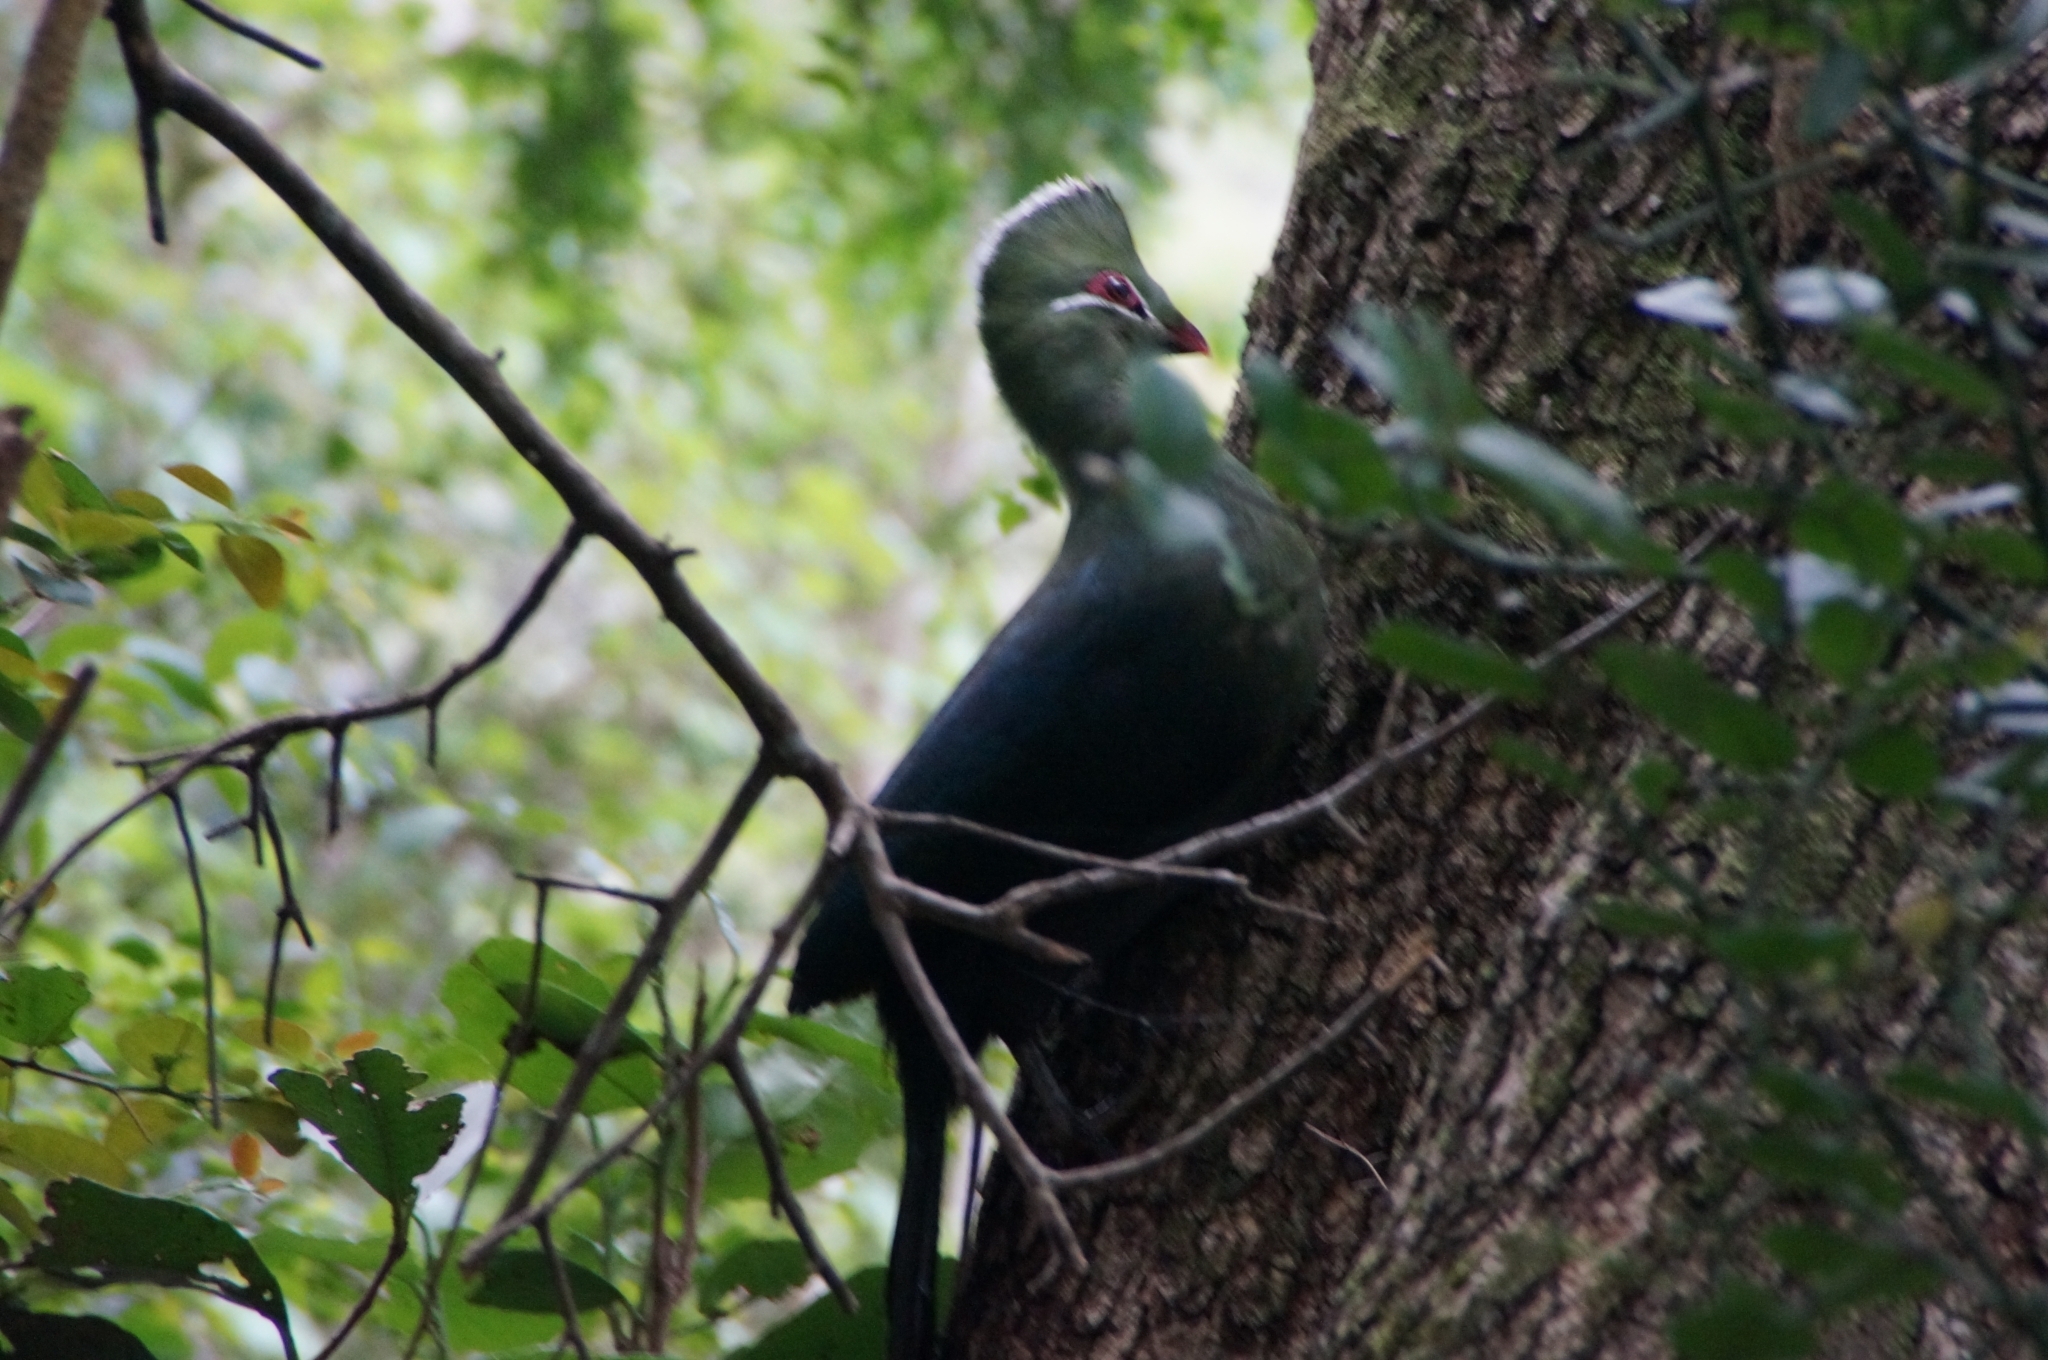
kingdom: Animalia
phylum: Chordata
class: Aves
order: Musophagiformes
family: Musophagidae
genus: Tauraco
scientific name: Tauraco corythaix
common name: Knysna turaco
